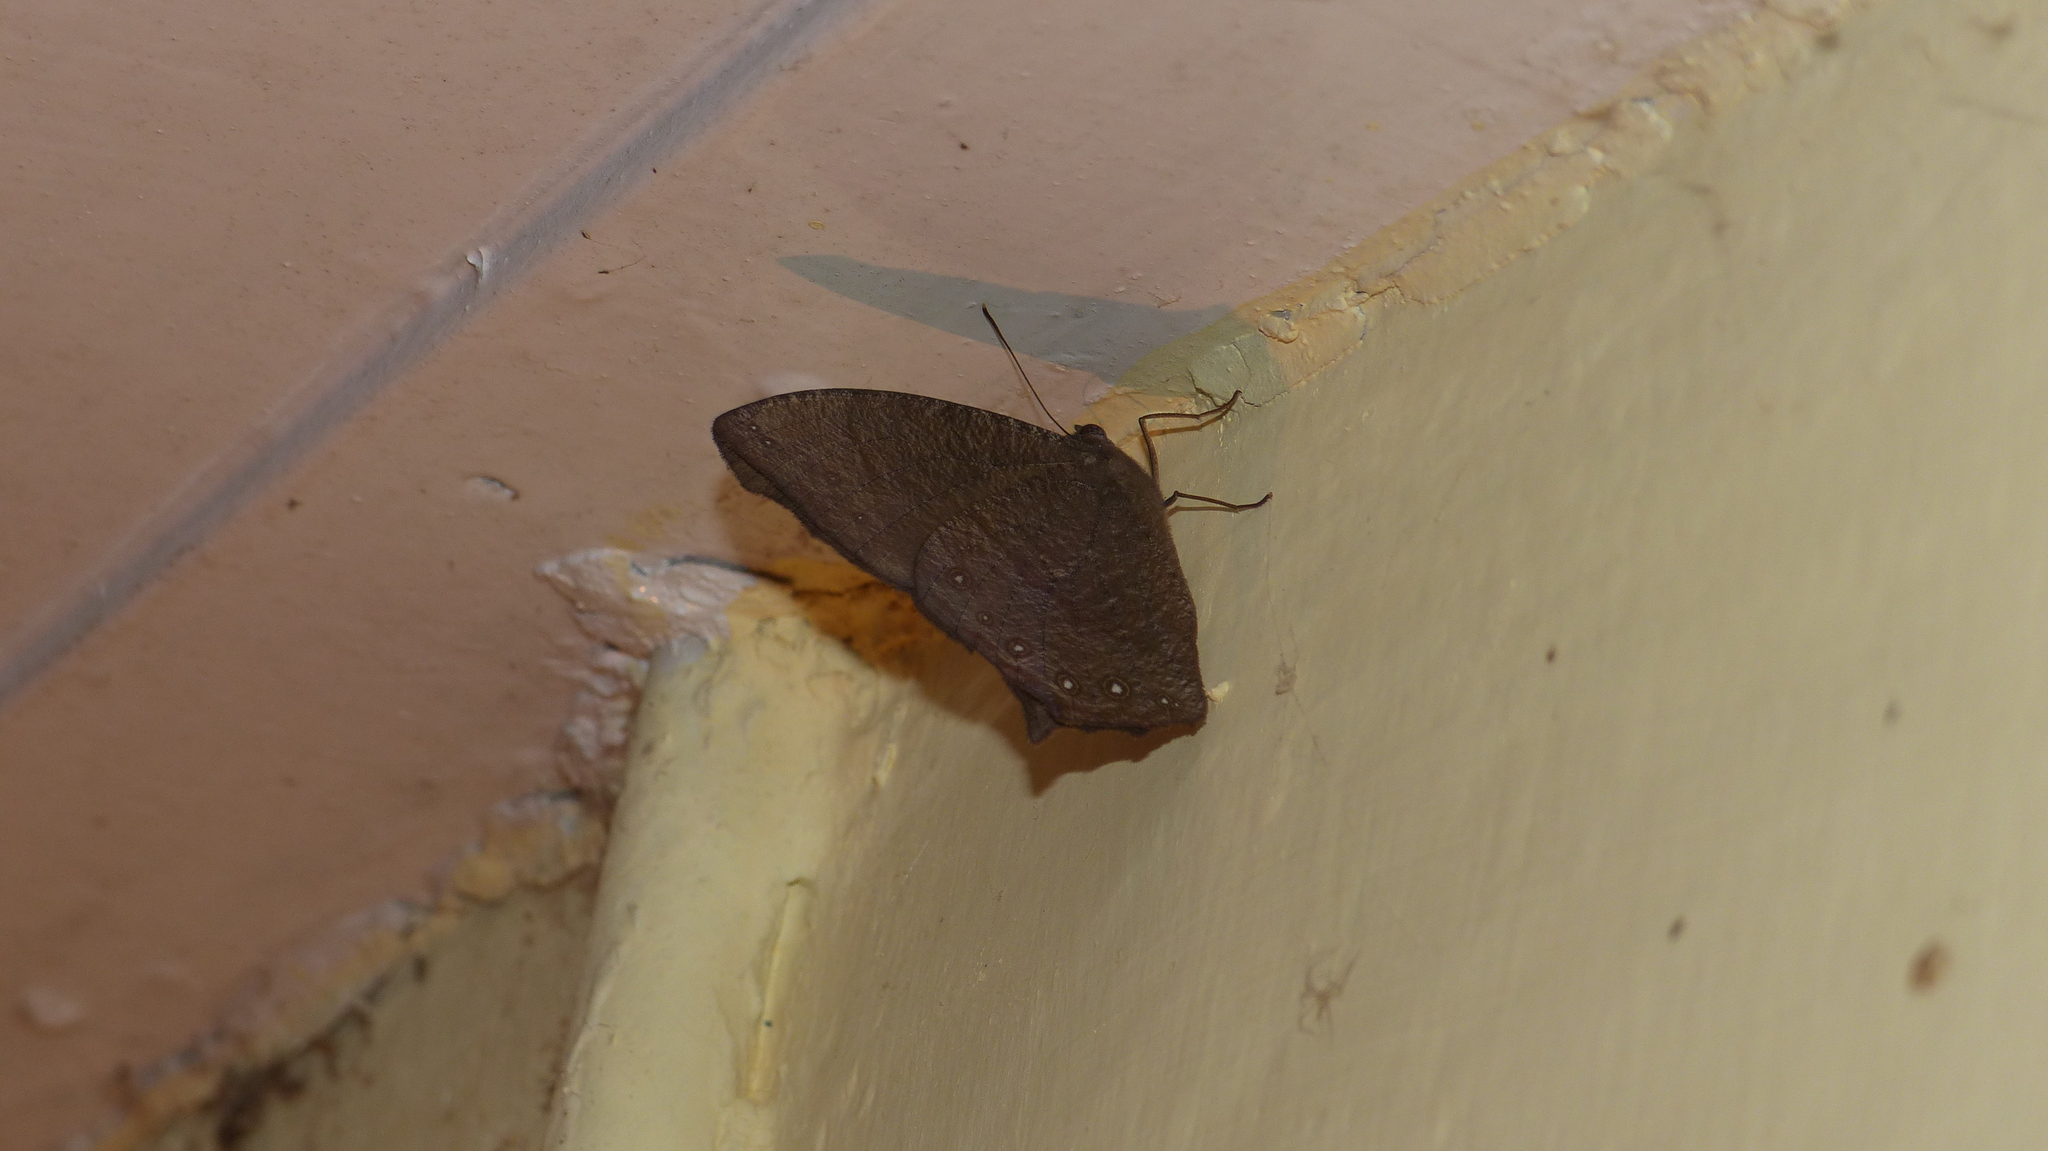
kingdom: Animalia
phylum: Arthropoda
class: Insecta
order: Lepidoptera
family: Nymphalidae
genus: Melanitis
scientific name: Melanitis phedima
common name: Dark evening brown
